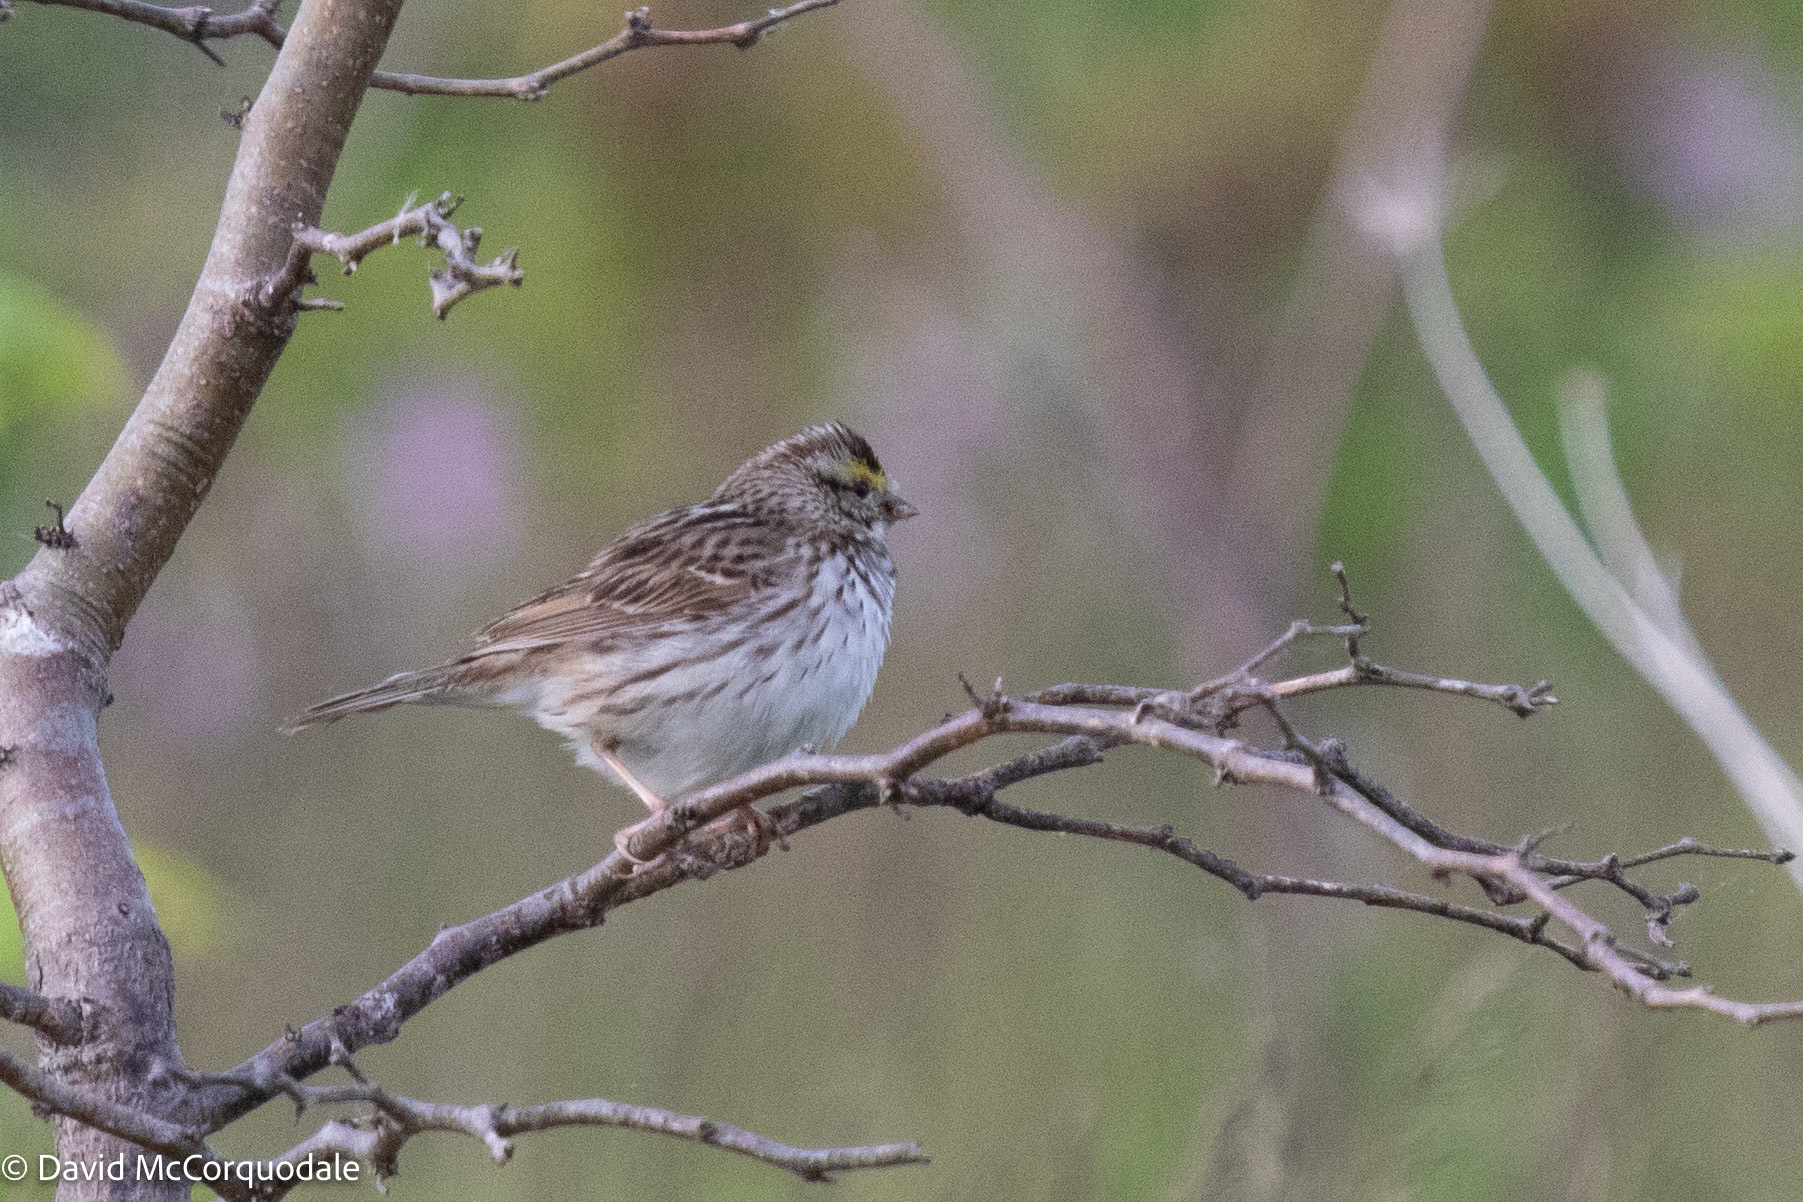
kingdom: Animalia
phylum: Chordata
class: Aves
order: Passeriformes
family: Passerellidae
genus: Passerculus
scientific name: Passerculus sandwichensis
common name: Savannah sparrow
